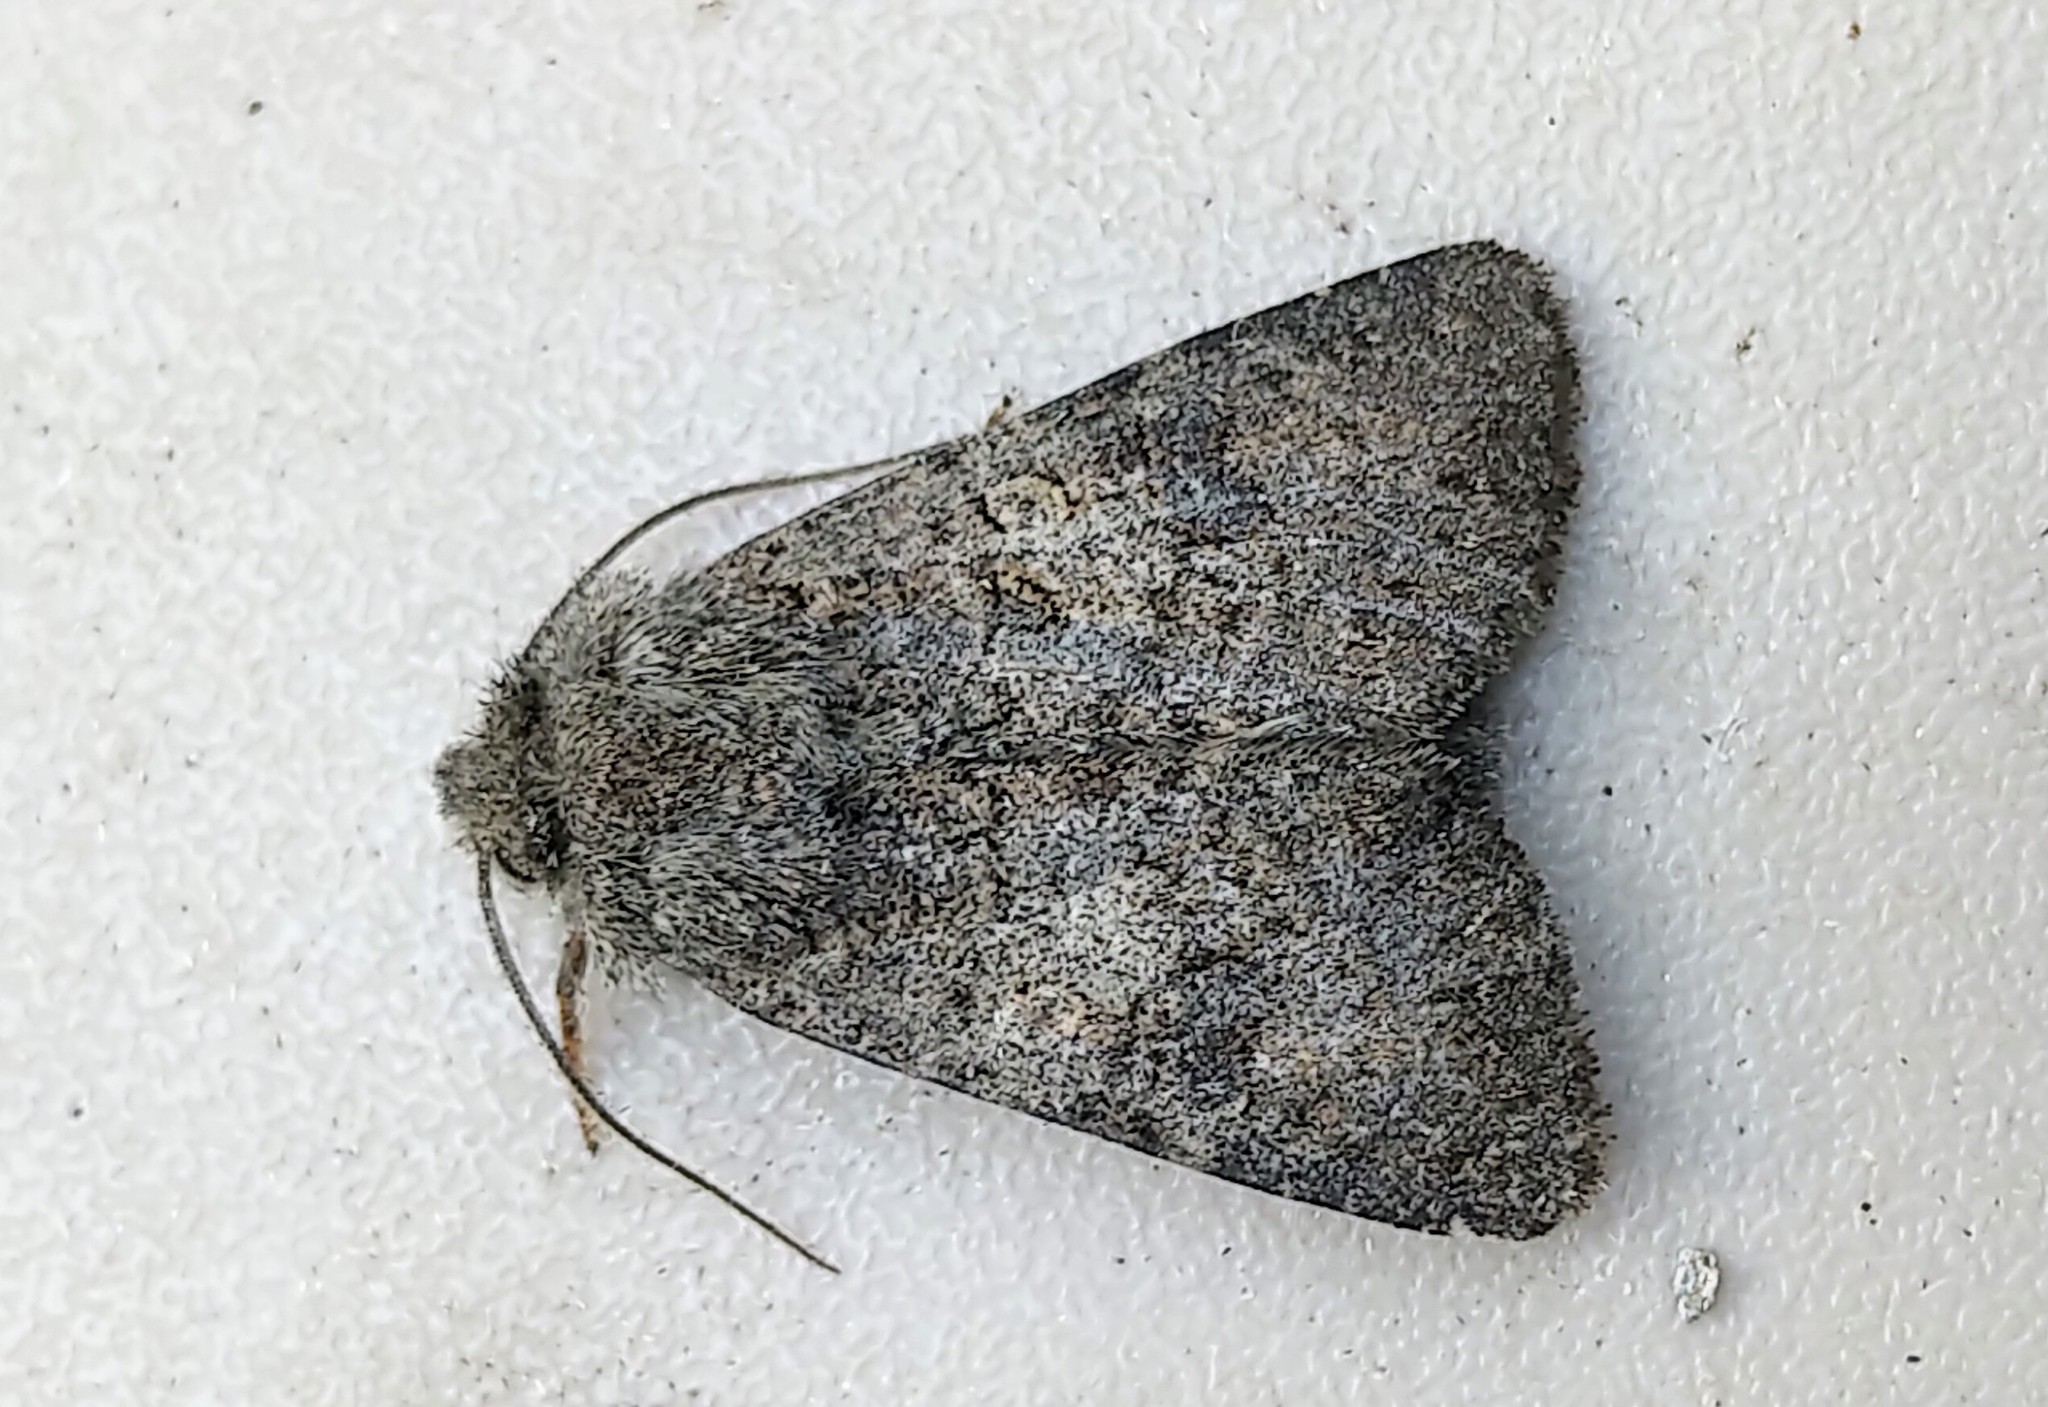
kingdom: Animalia
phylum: Arthropoda
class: Insecta
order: Lepidoptera
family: Noctuidae
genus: Anarta
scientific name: Anarta columbica
